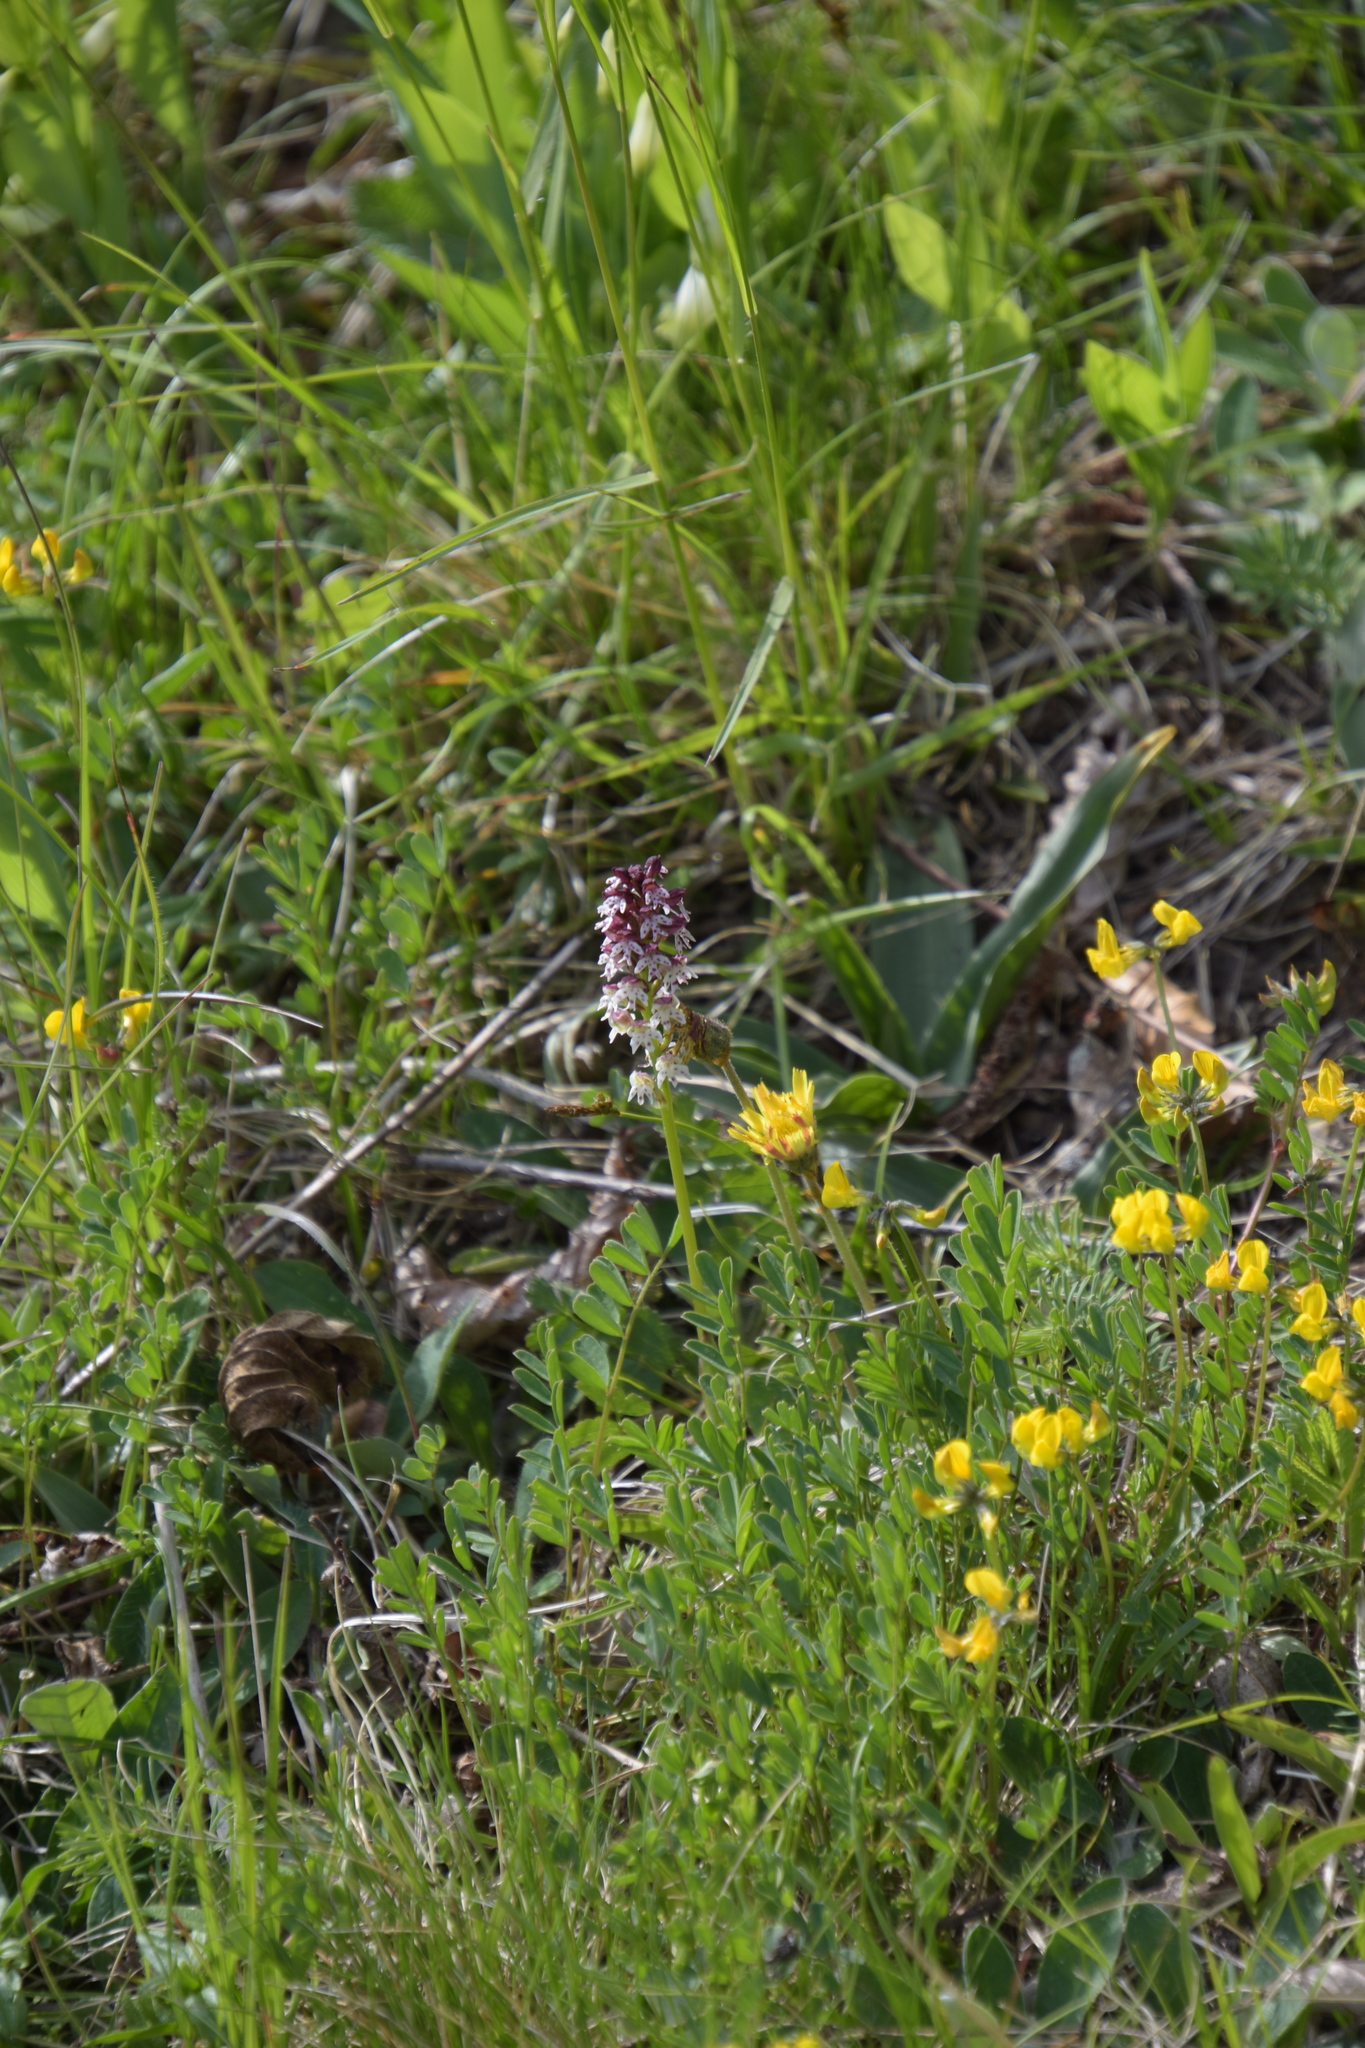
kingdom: Plantae
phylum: Tracheophyta
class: Liliopsida
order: Asparagales
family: Orchidaceae
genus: Neotinea
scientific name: Neotinea ustulata
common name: Burnt orchid
